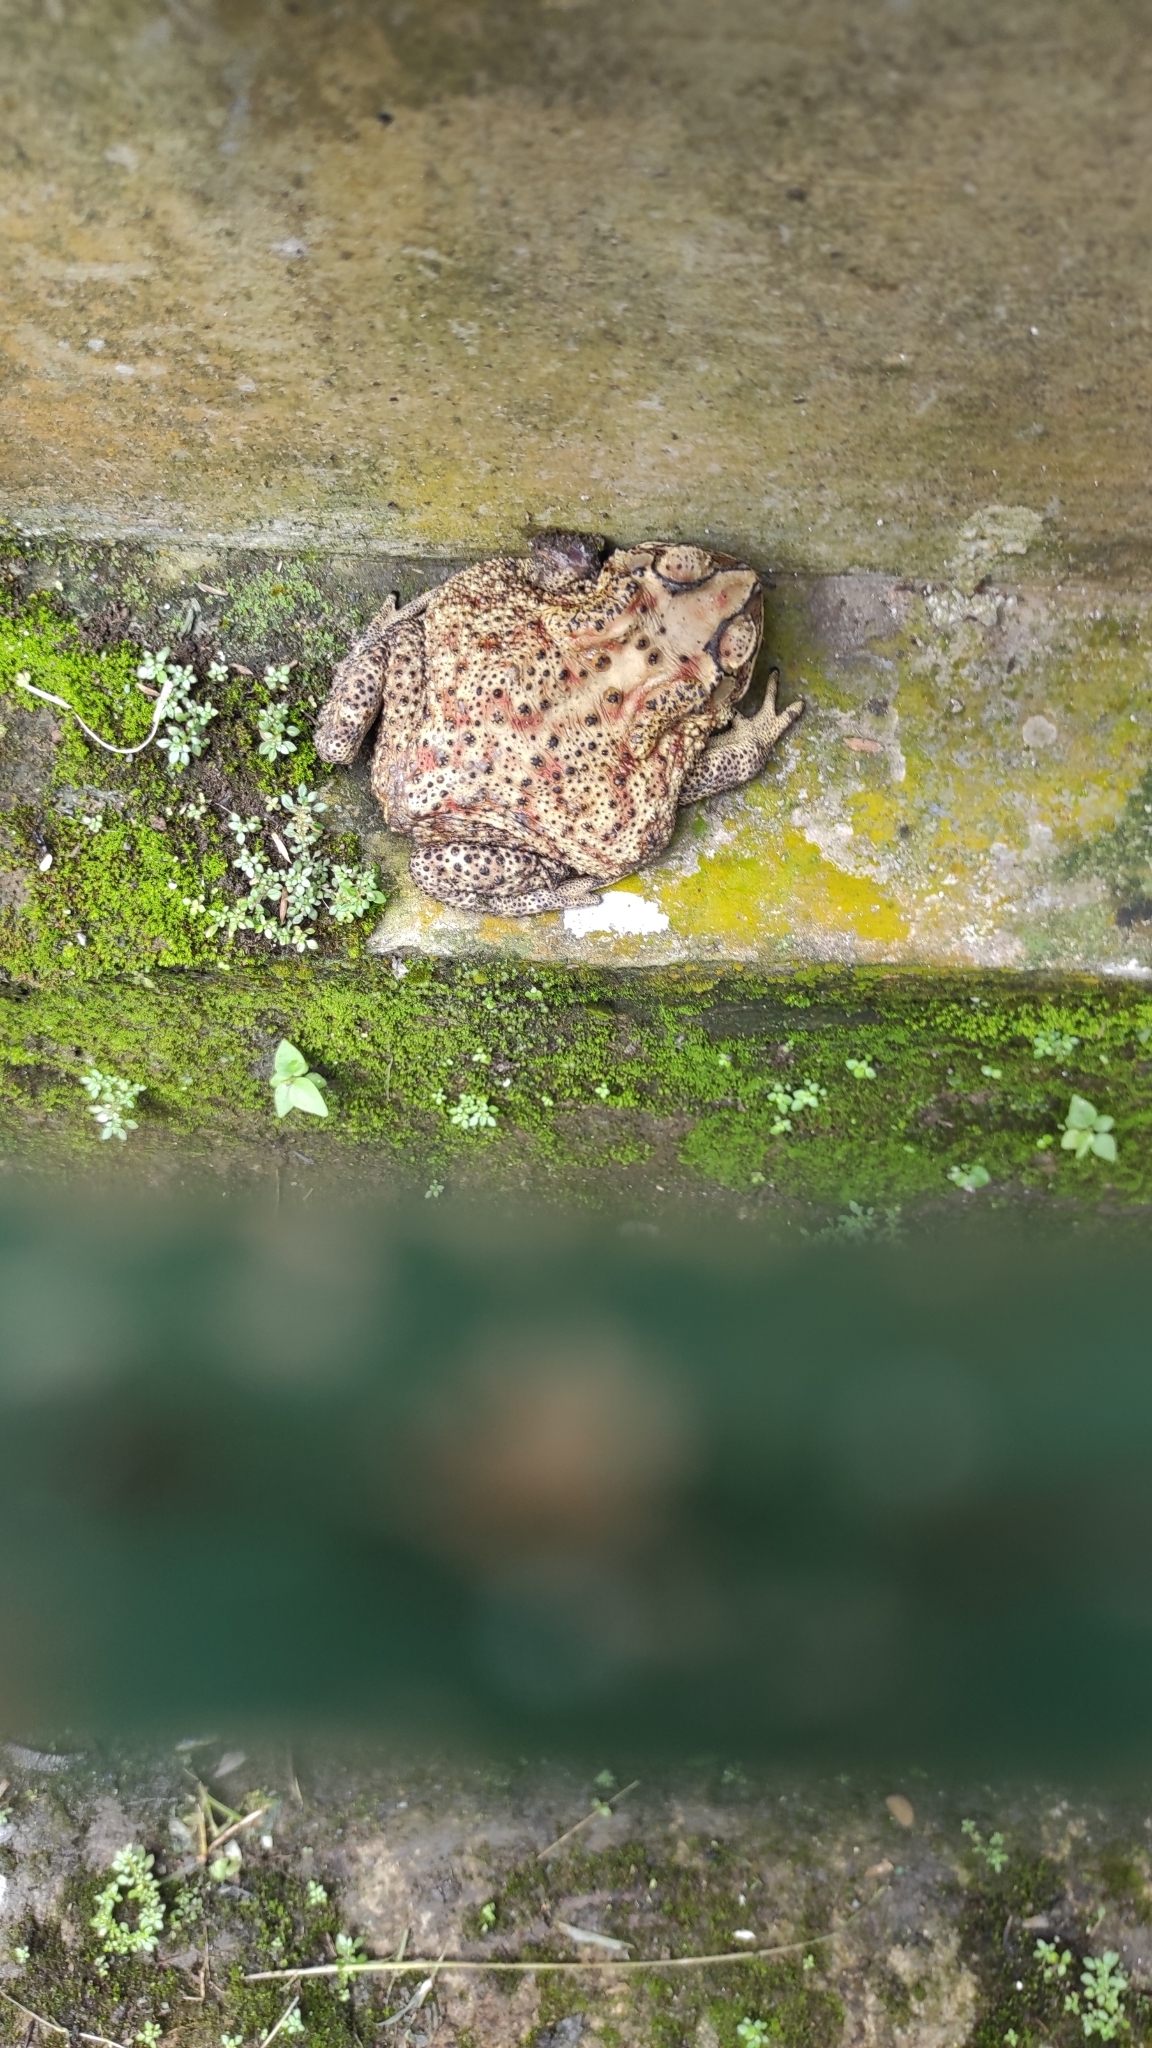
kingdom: Animalia
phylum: Chordata
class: Amphibia
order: Anura
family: Bufonidae
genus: Duttaphrynus
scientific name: Duttaphrynus melanostictus
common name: Common sunda toad
